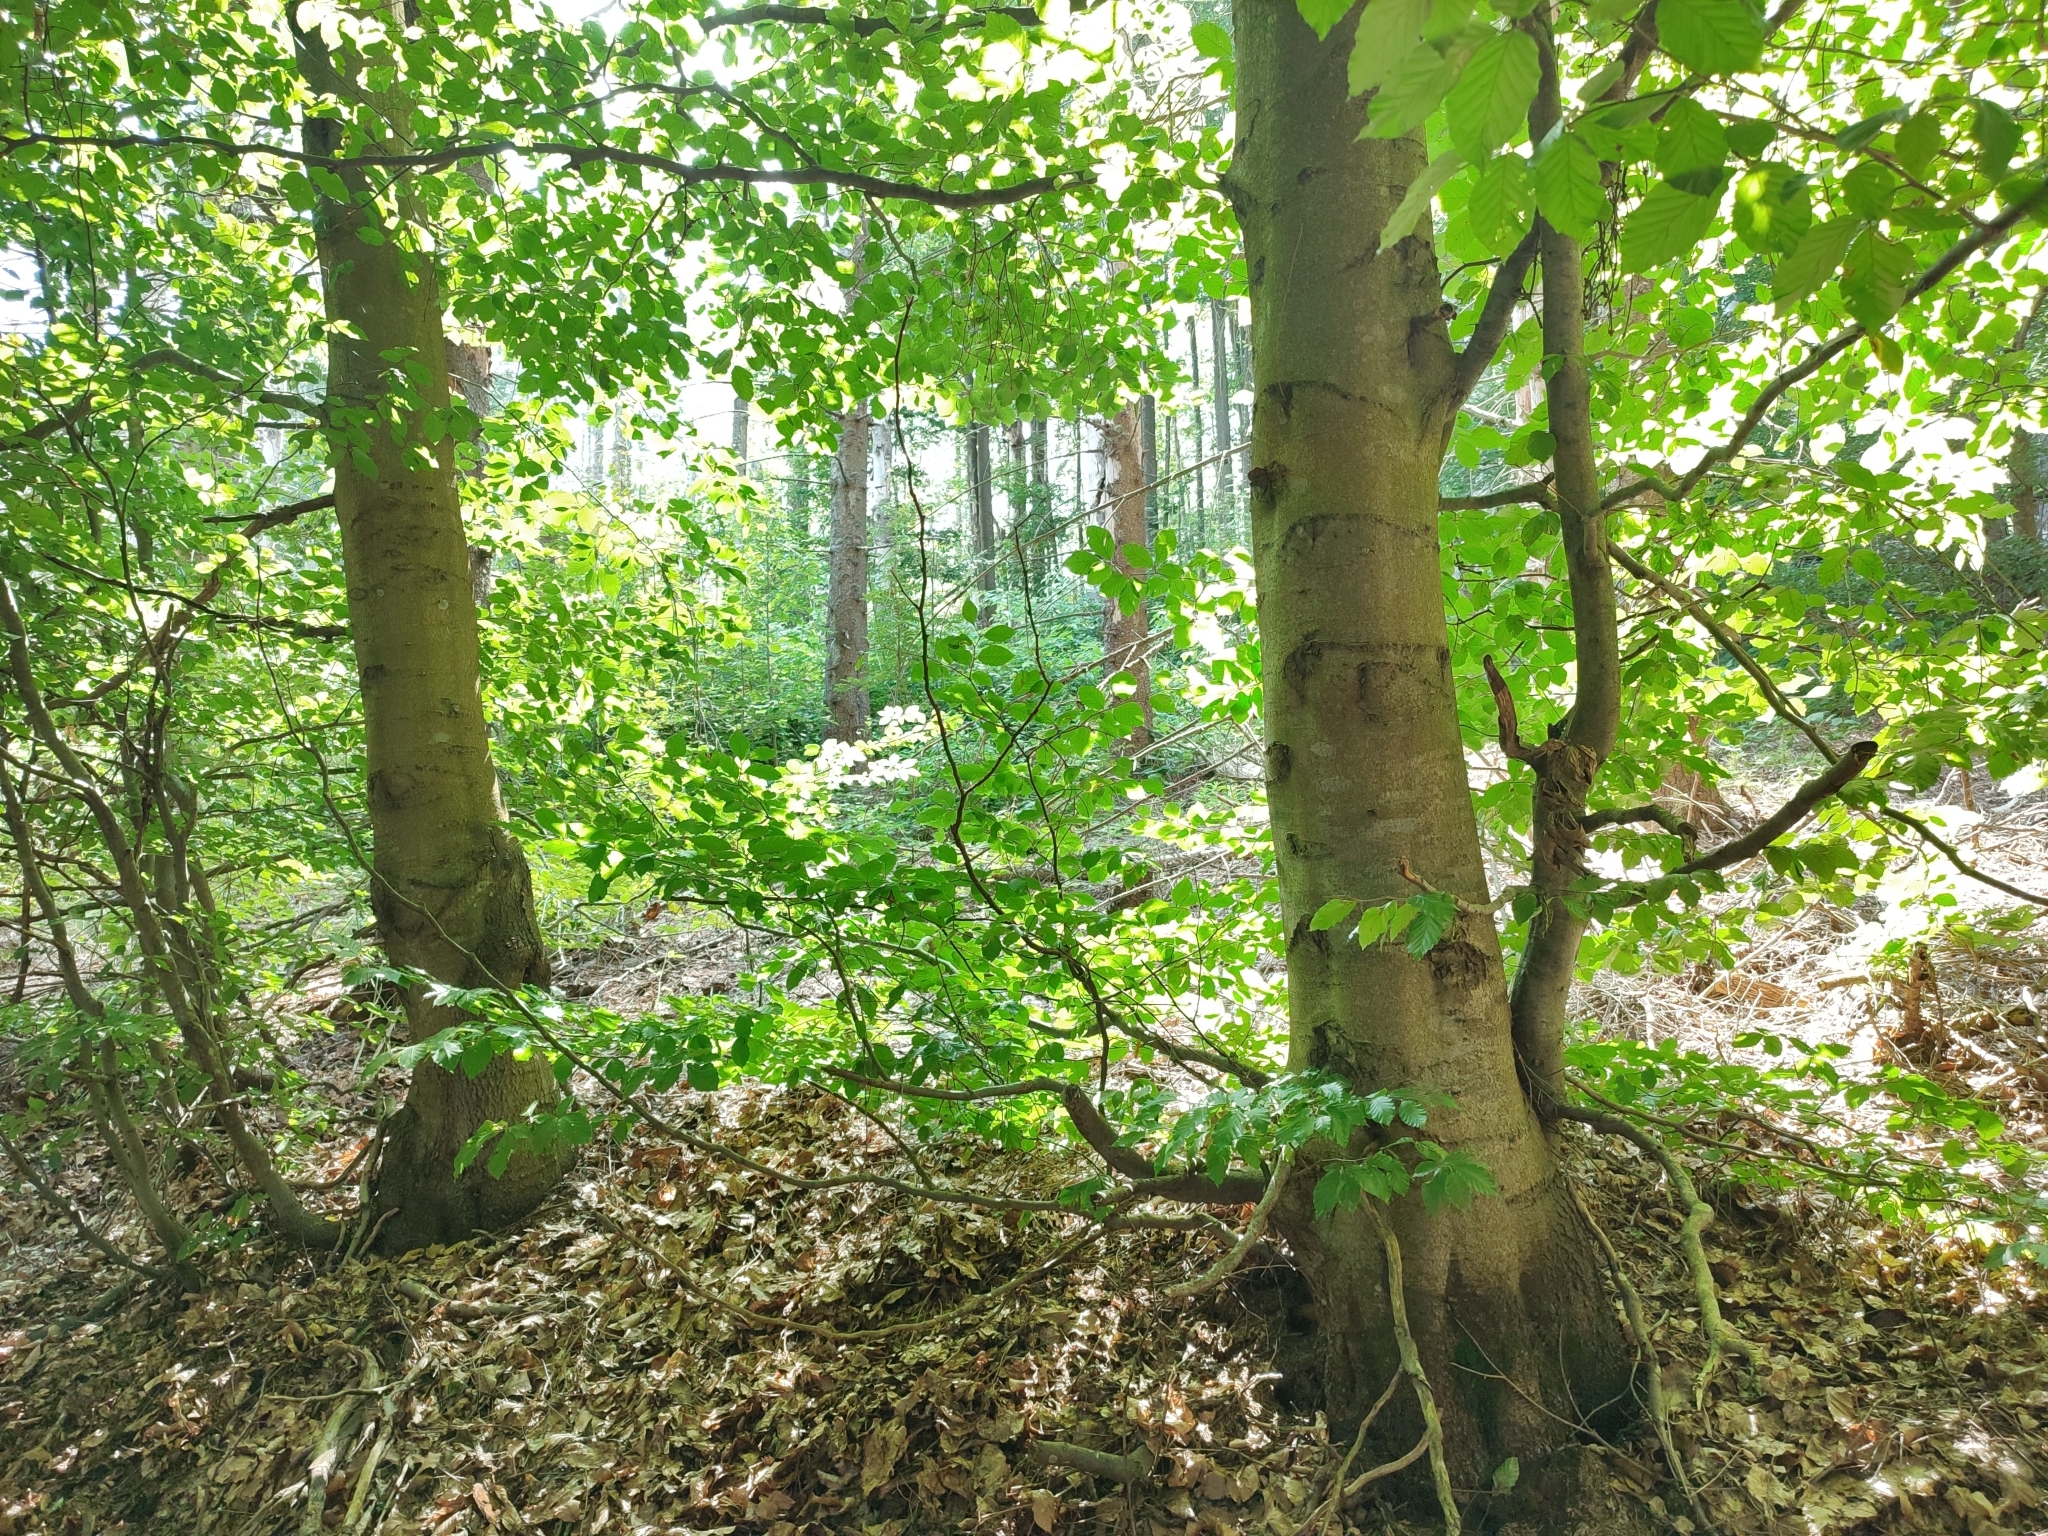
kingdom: Plantae
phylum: Tracheophyta
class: Magnoliopsida
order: Fagales
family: Fagaceae
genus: Fagus
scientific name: Fagus sylvatica
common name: Beech
